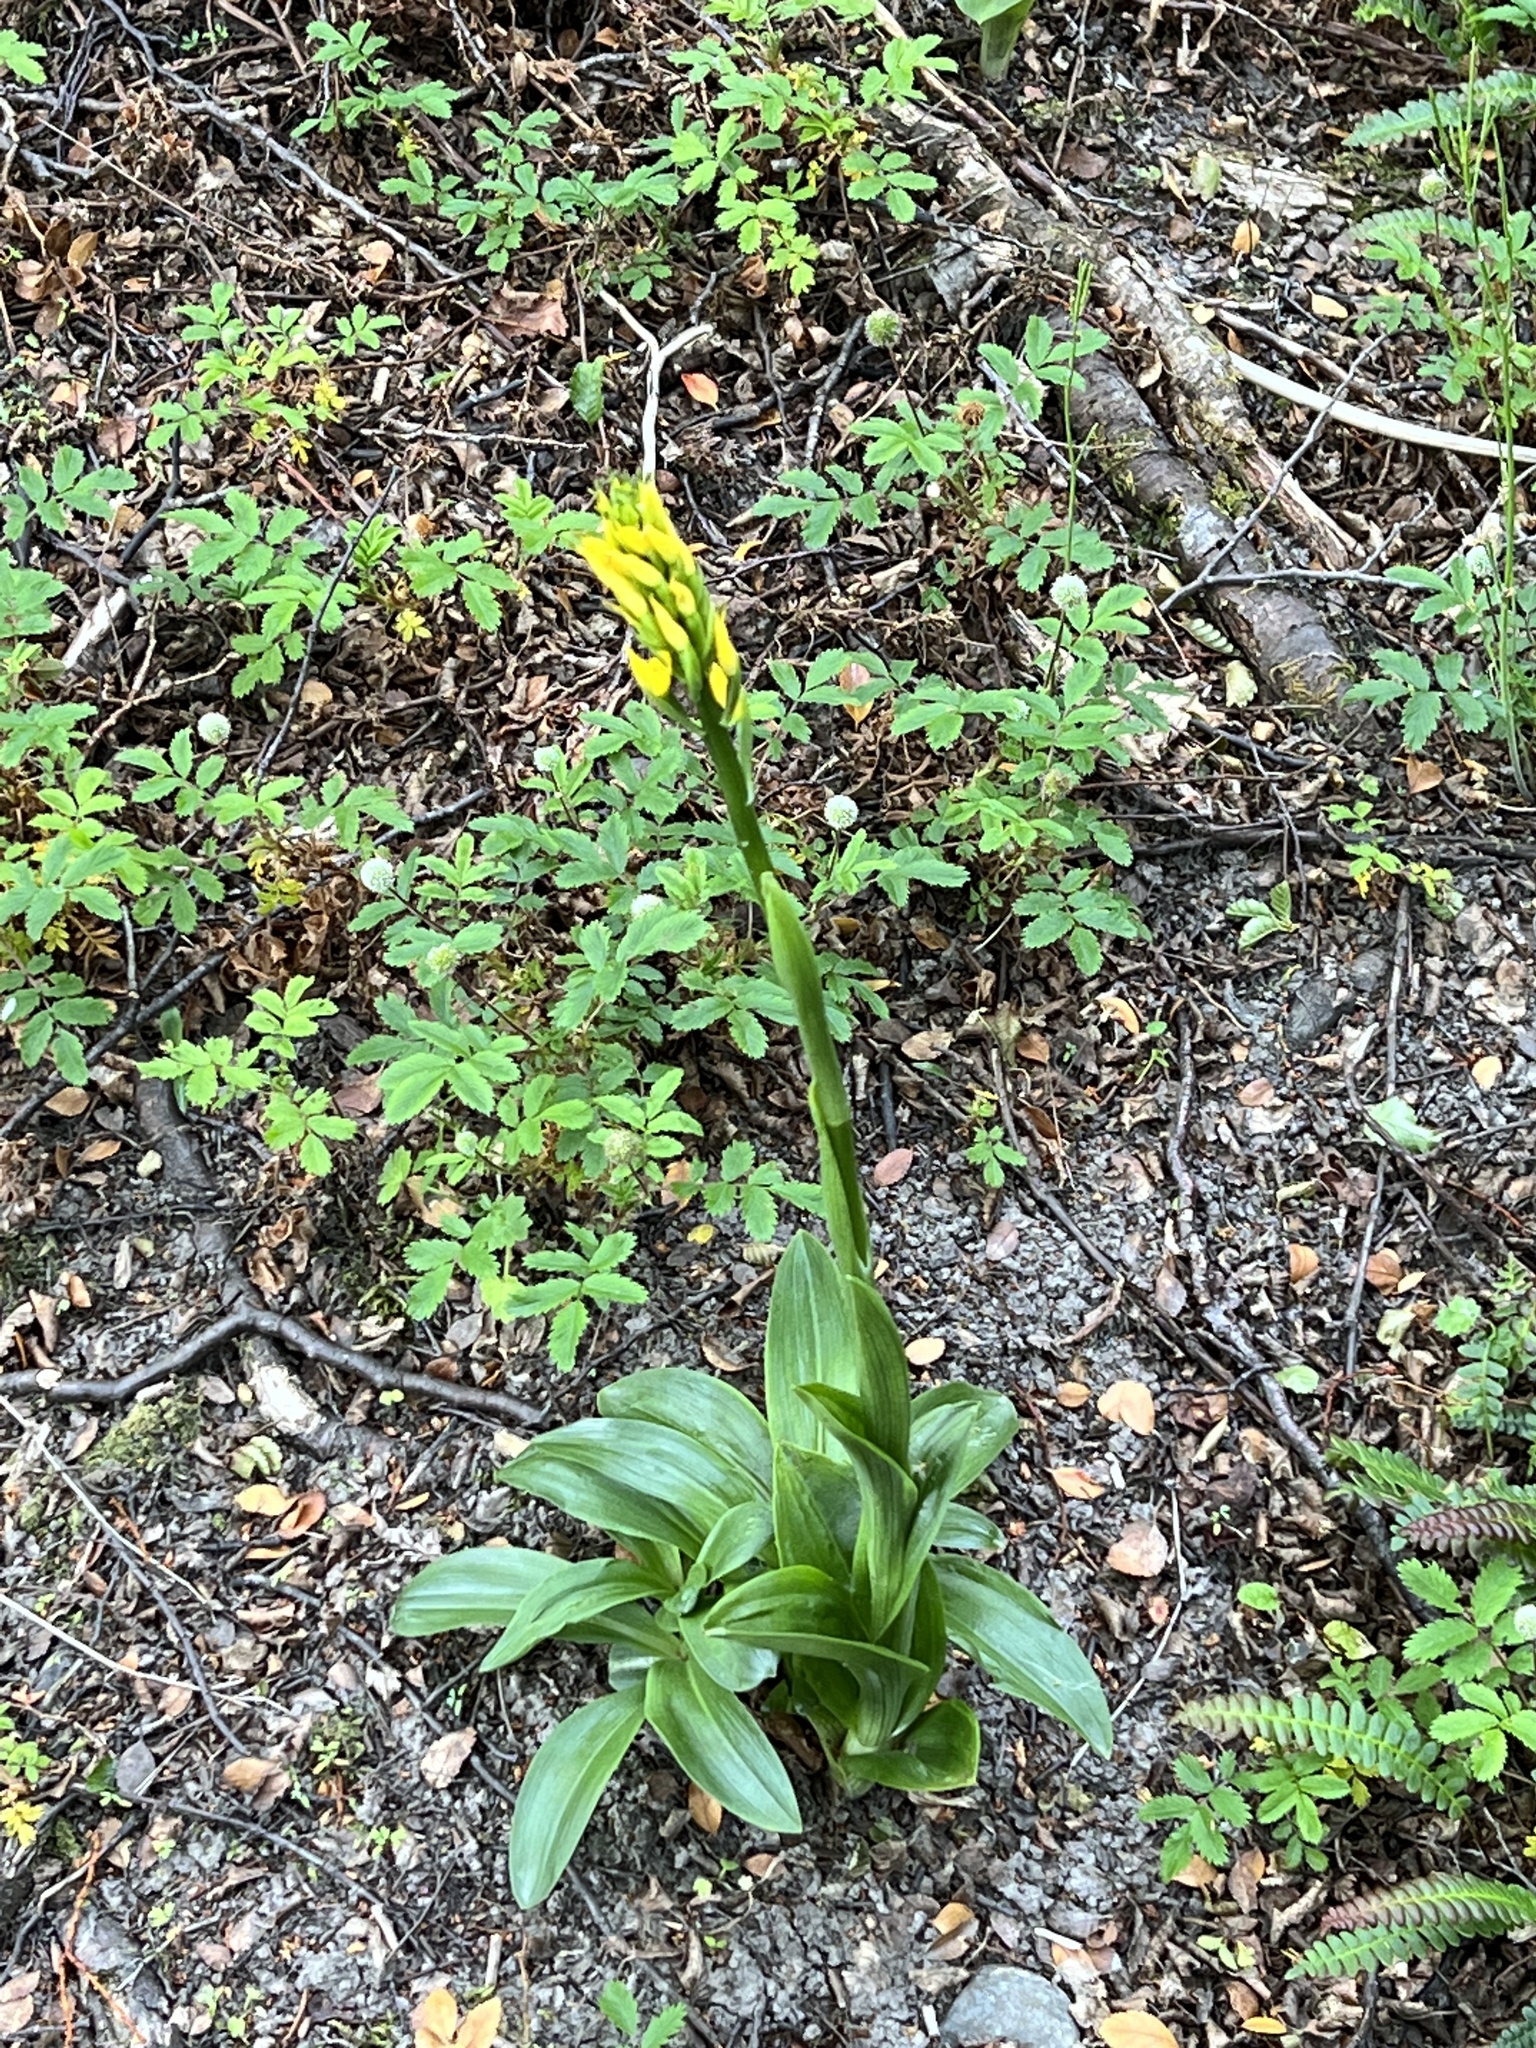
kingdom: Plantae
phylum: Tracheophyta
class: Liliopsida
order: Asparagales
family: Orchidaceae
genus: Gavilea
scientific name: Gavilea lutea
